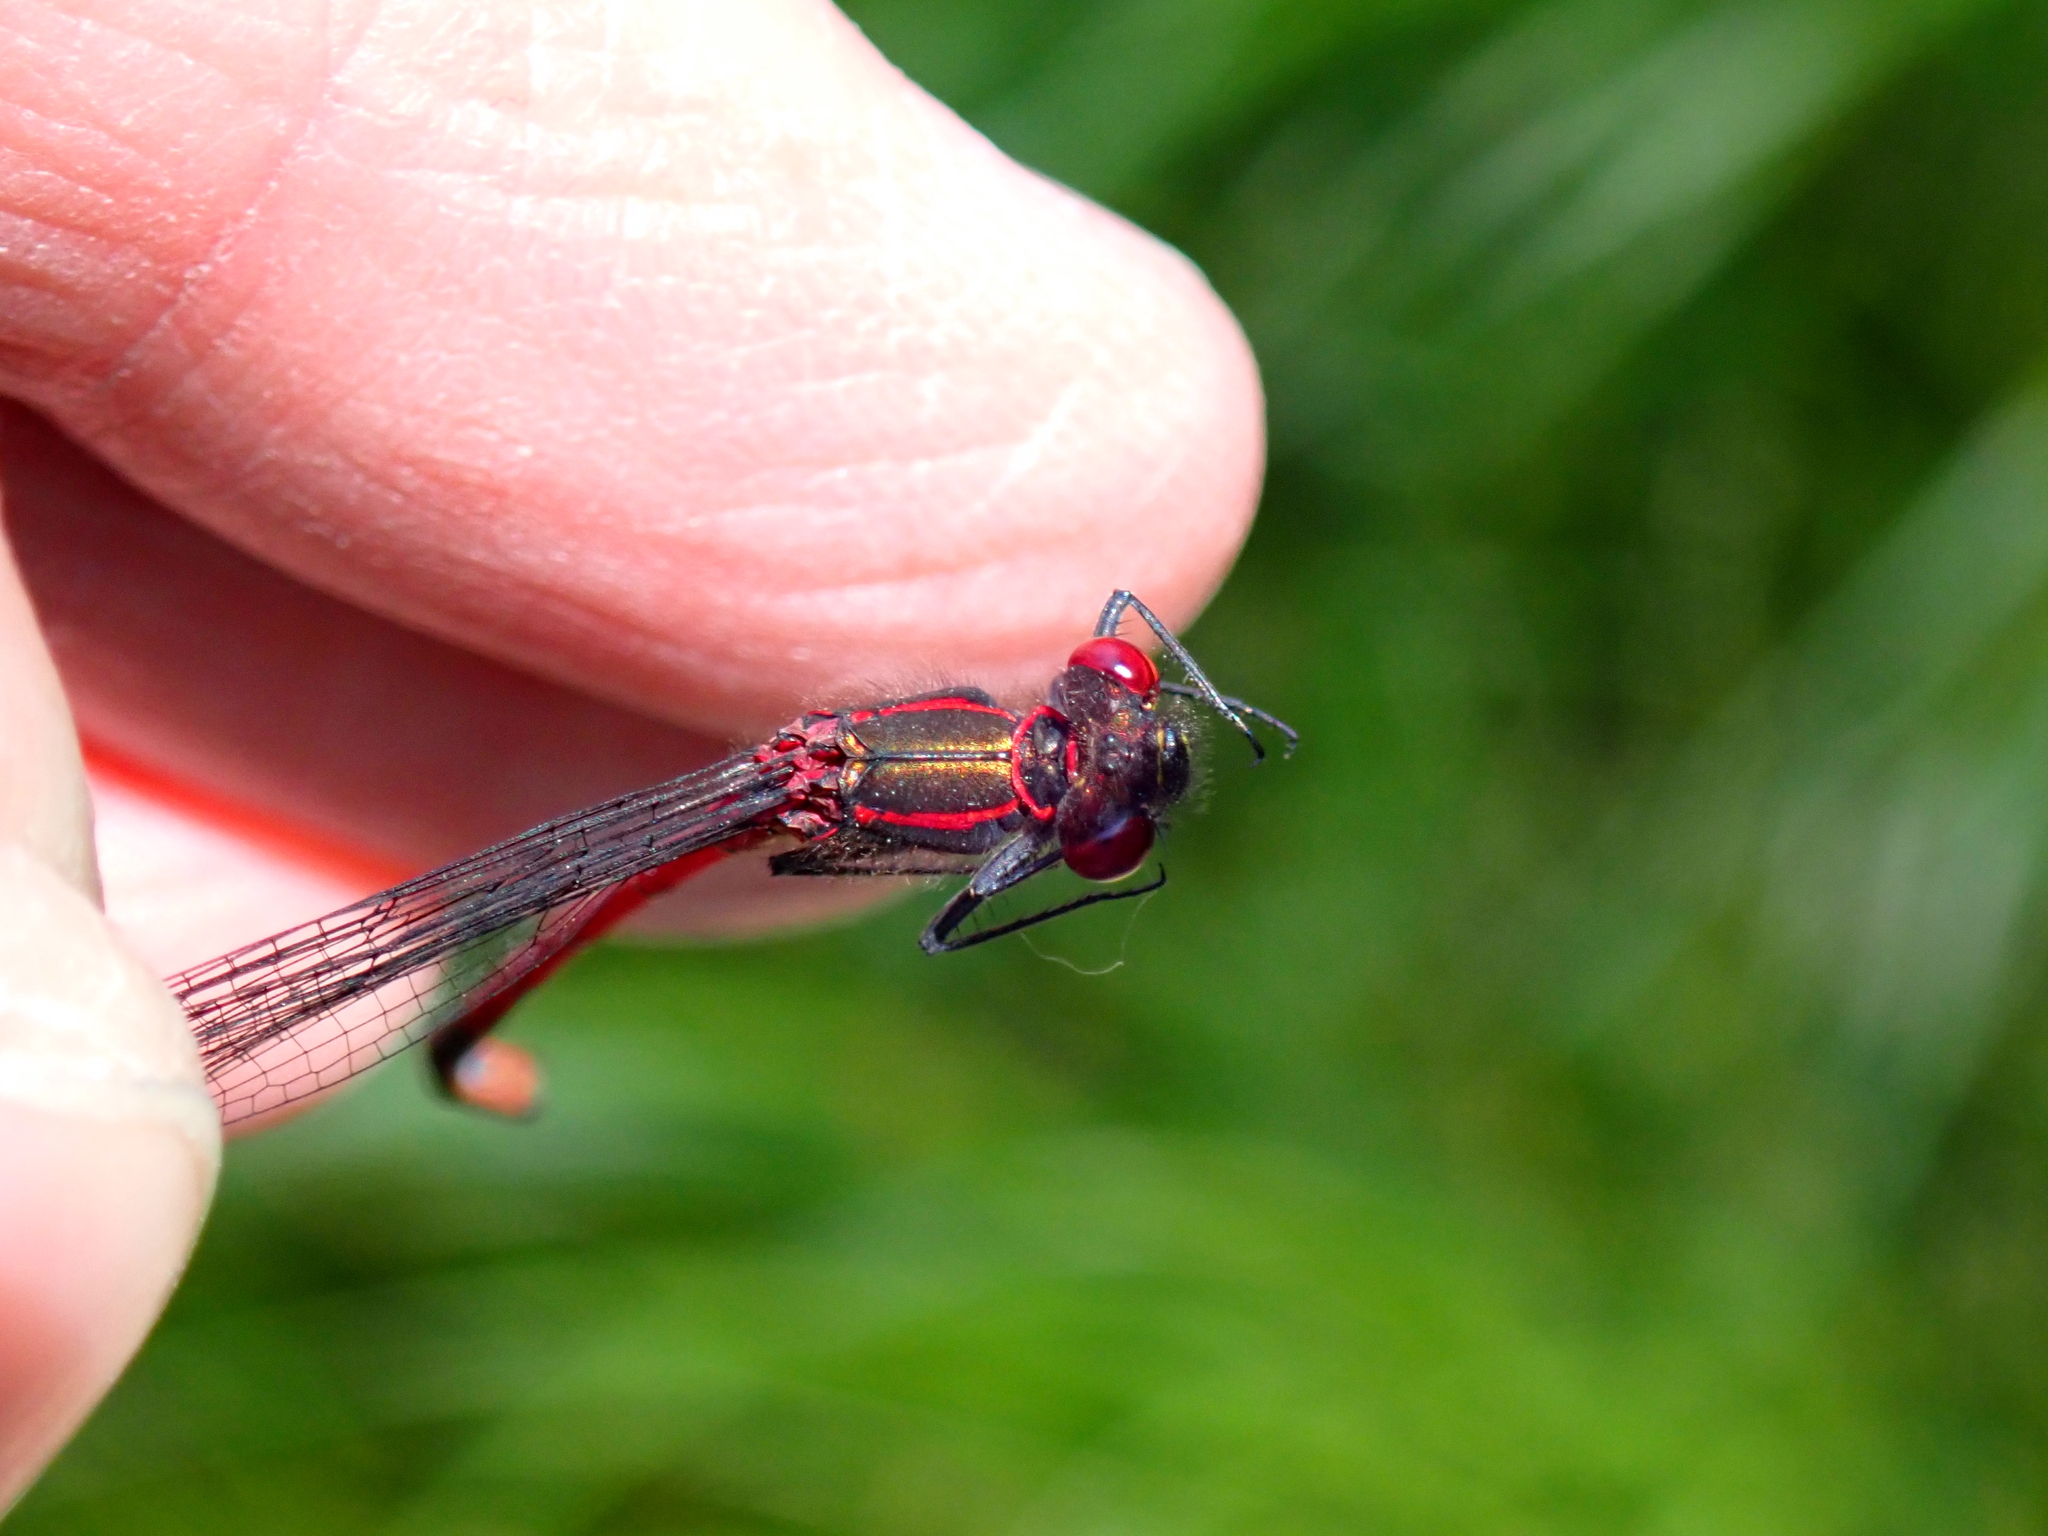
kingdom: Animalia
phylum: Arthropoda
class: Insecta
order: Odonata
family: Coenagrionidae
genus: Pyrrhosoma
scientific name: Pyrrhosoma nymphula
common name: Large red damsel
